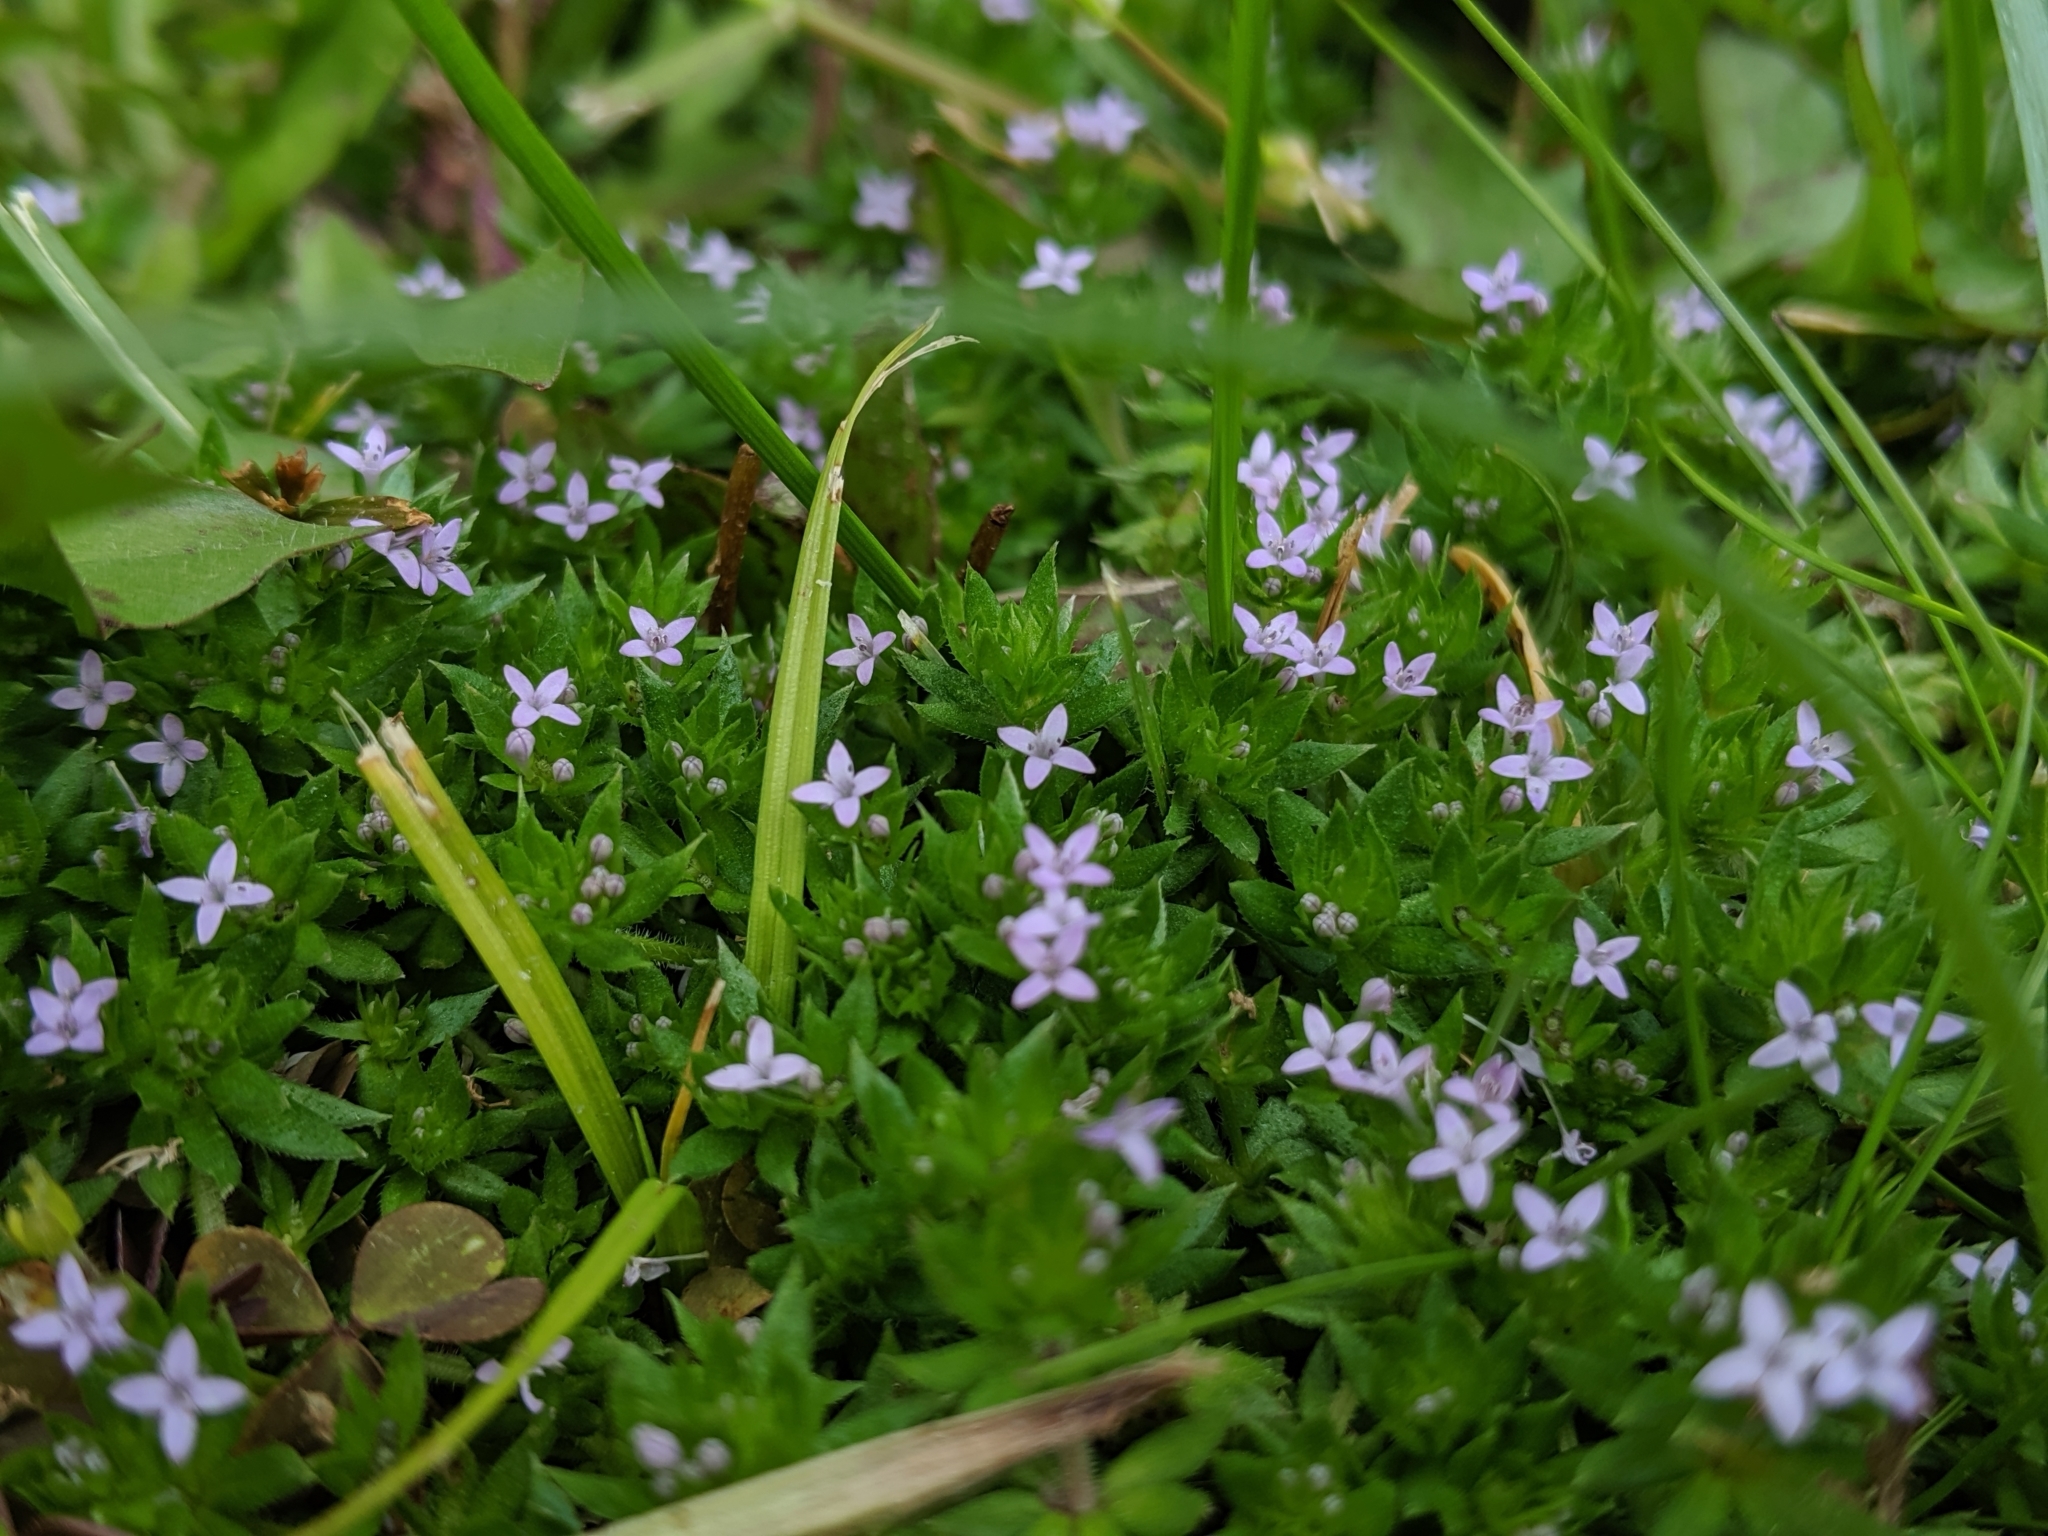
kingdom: Plantae
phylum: Tracheophyta
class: Magnoliopsida
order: Gentianales
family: Rubiaceae
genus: Sherardia
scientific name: Sherardia arvensis
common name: Field madder
